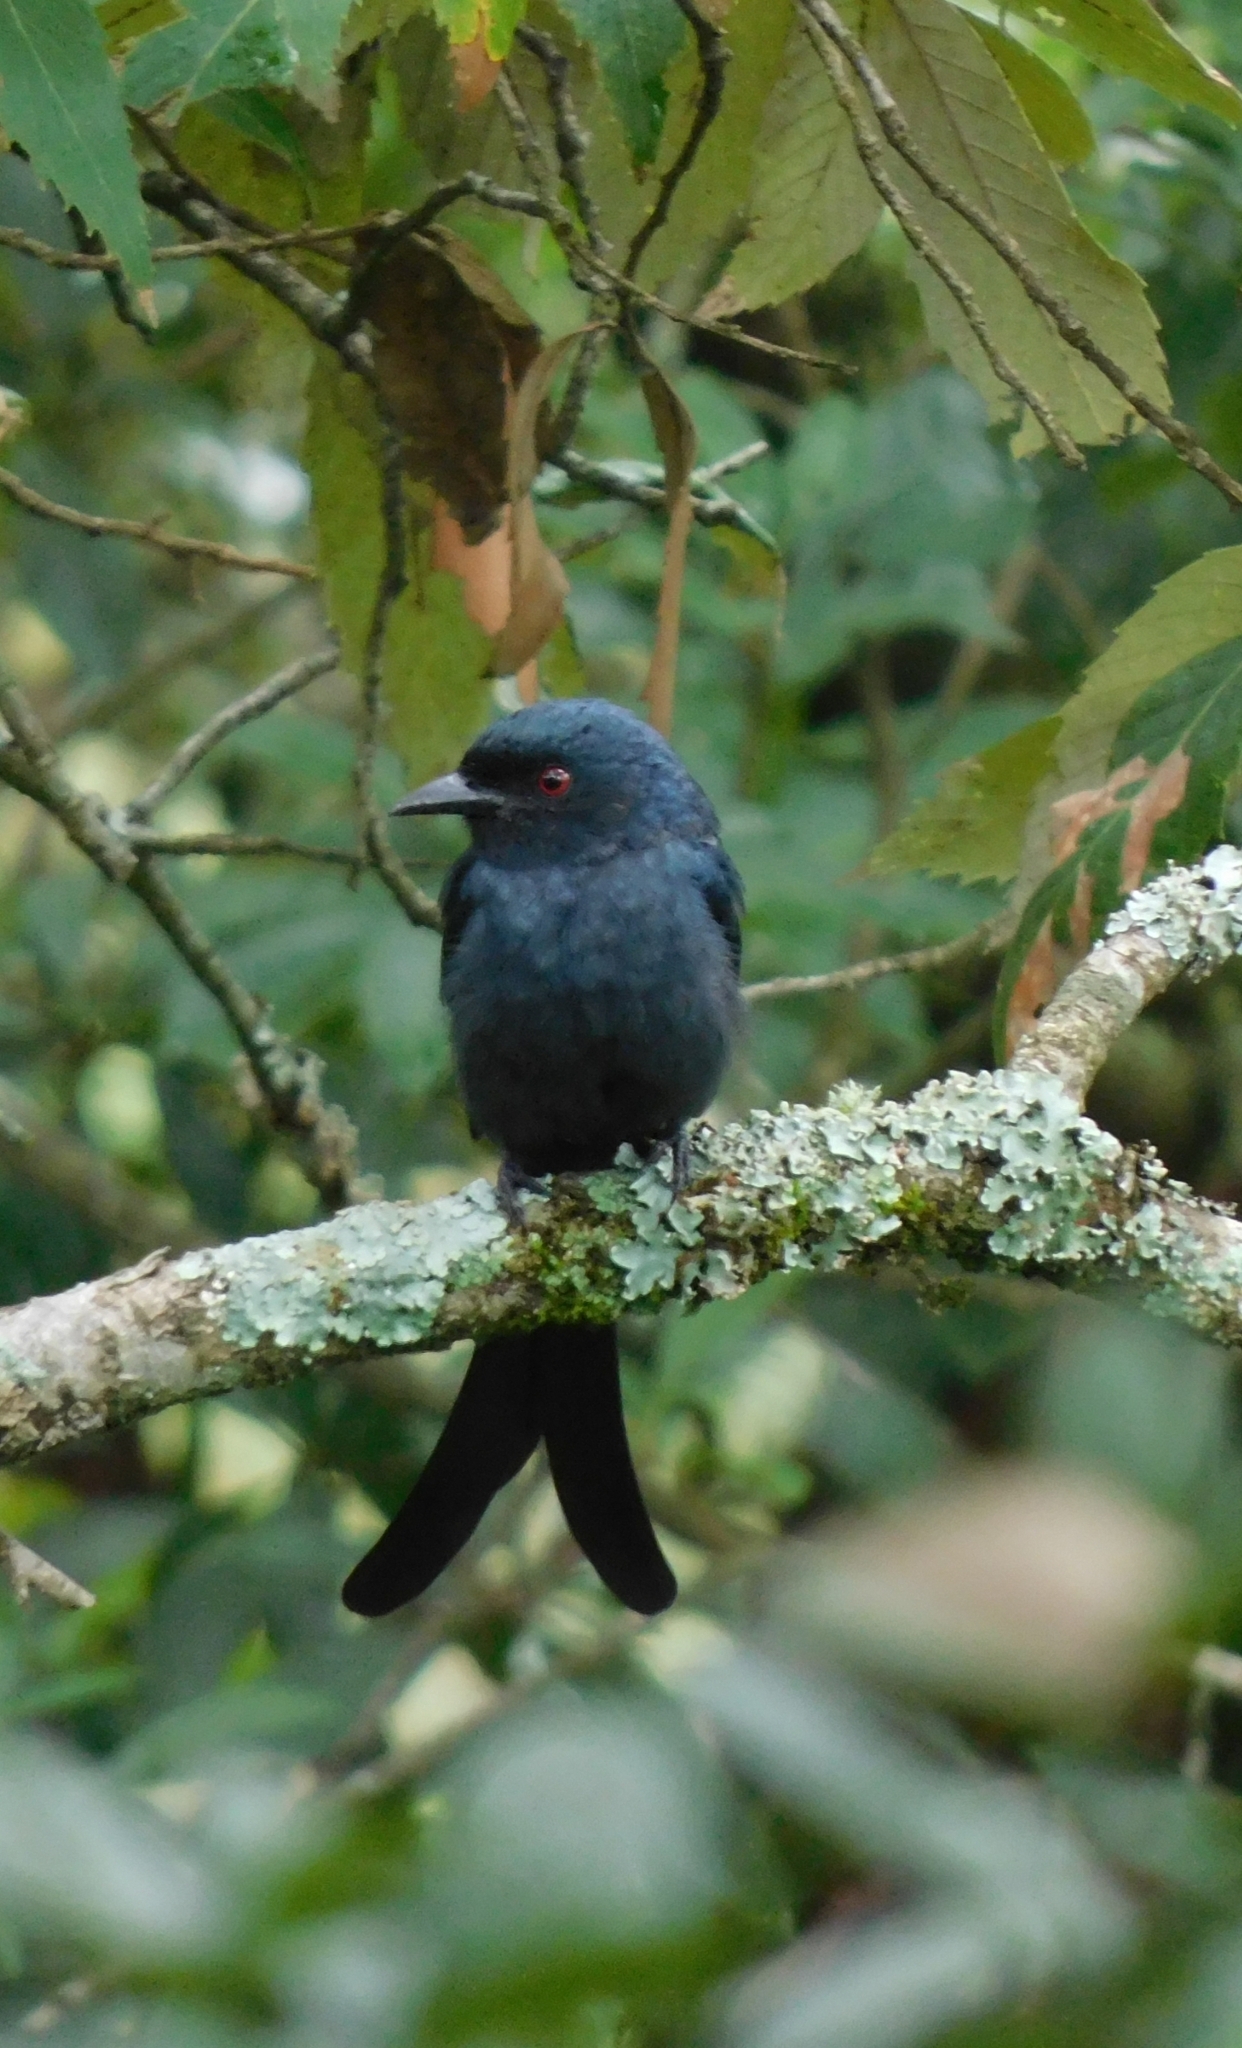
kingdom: Animalia
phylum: Chordata
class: Aves
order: Passeriformes
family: Dicruridae
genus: Dicrurus
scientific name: Dicrurus leucophaeus
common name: Ashy drongo
